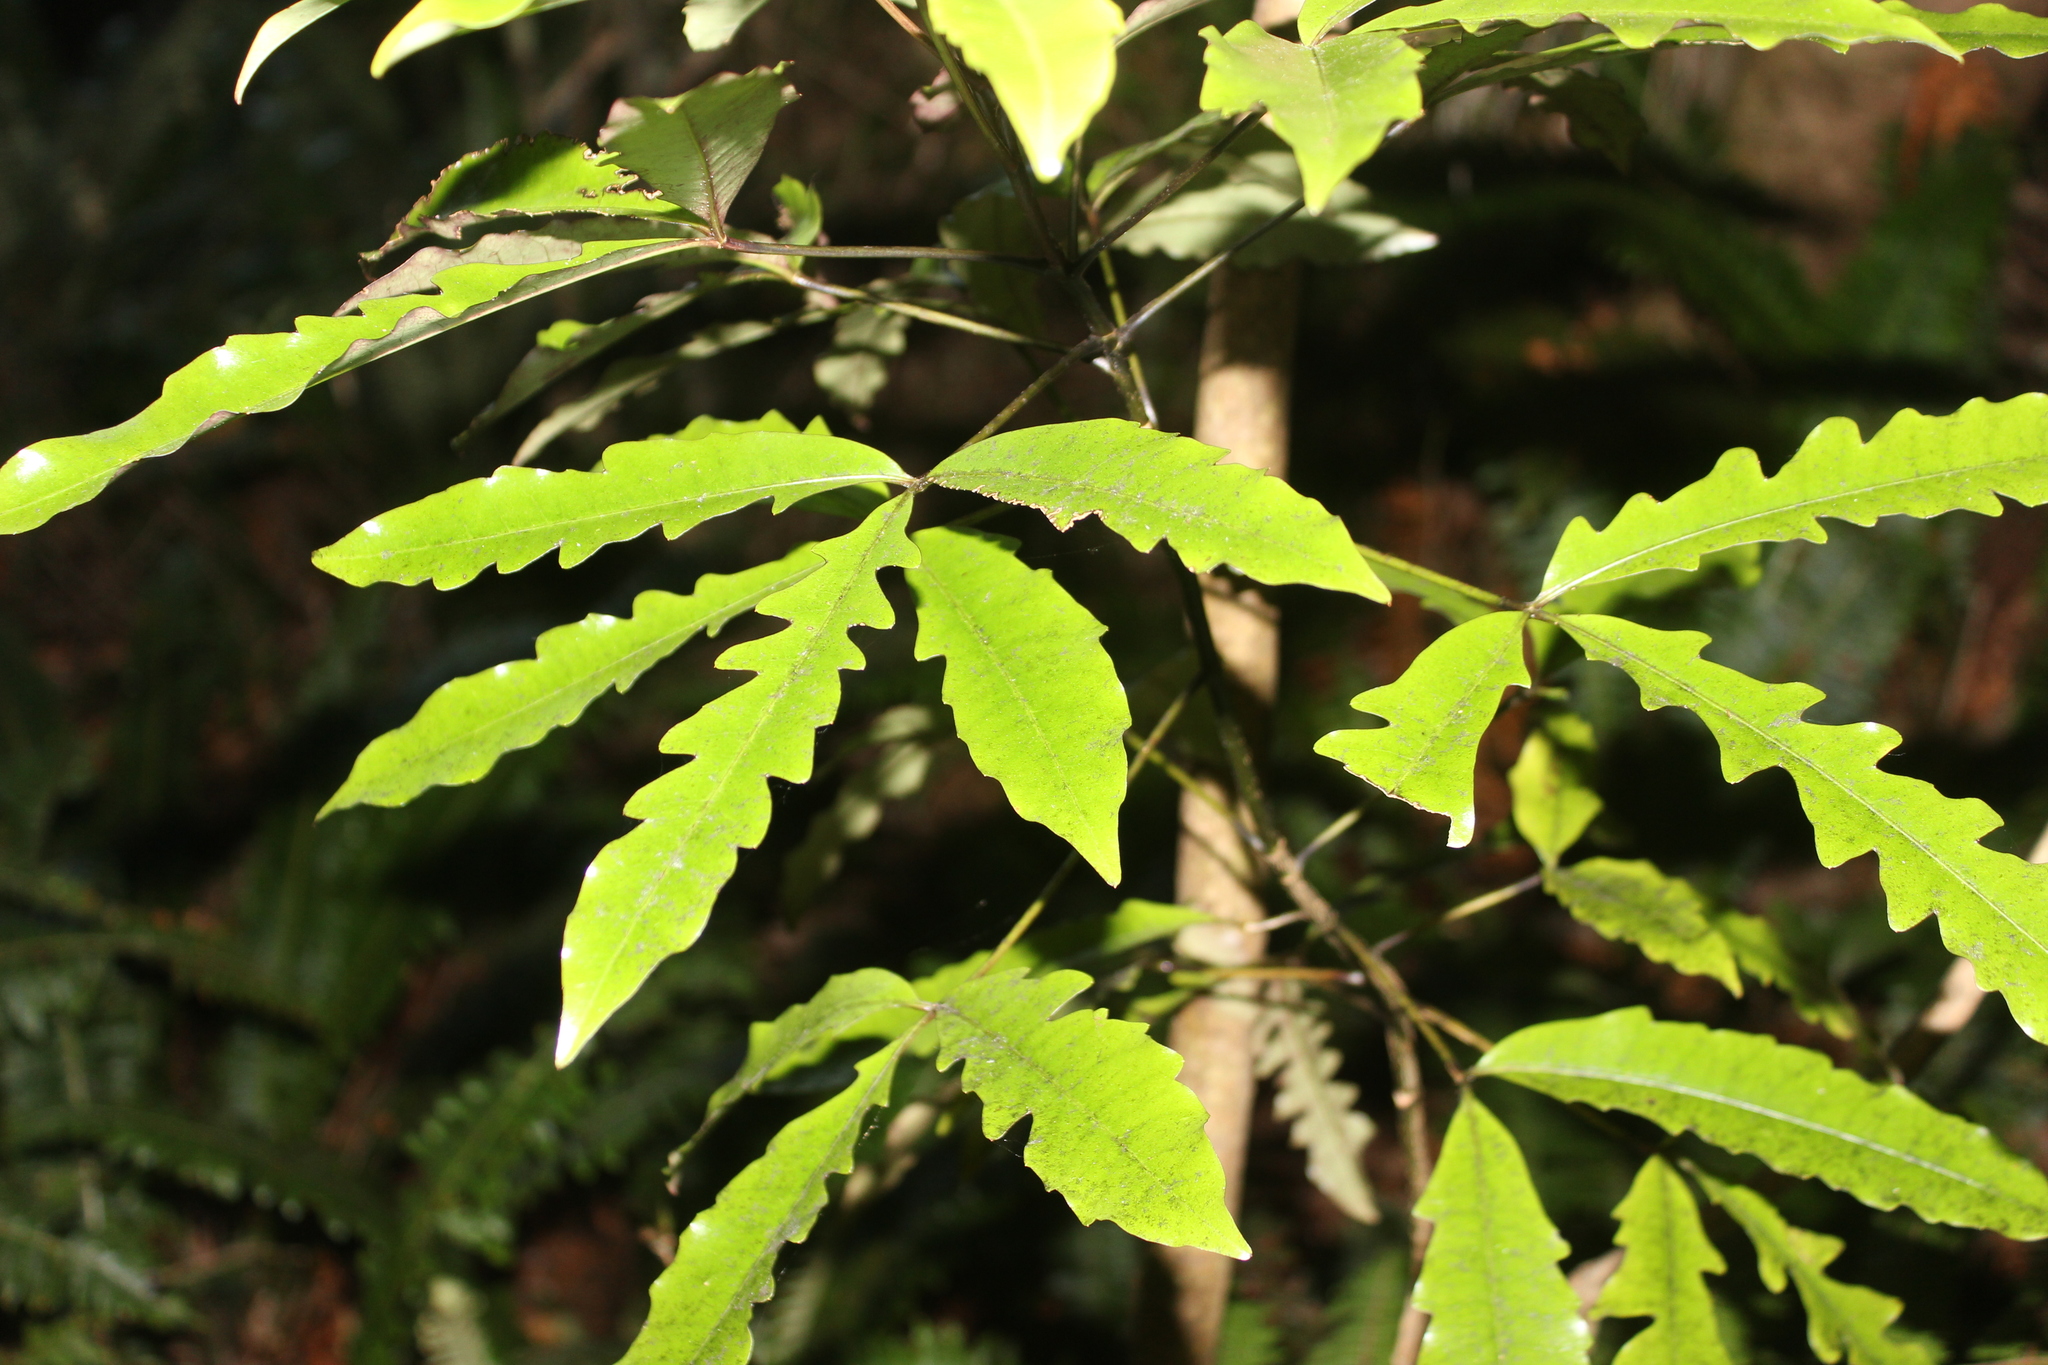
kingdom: Plantae
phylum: Tracheophyta
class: Magnoliopsida
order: Apiales
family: Araliaceae
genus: Raukaua
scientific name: Raukaua edgerleyi
